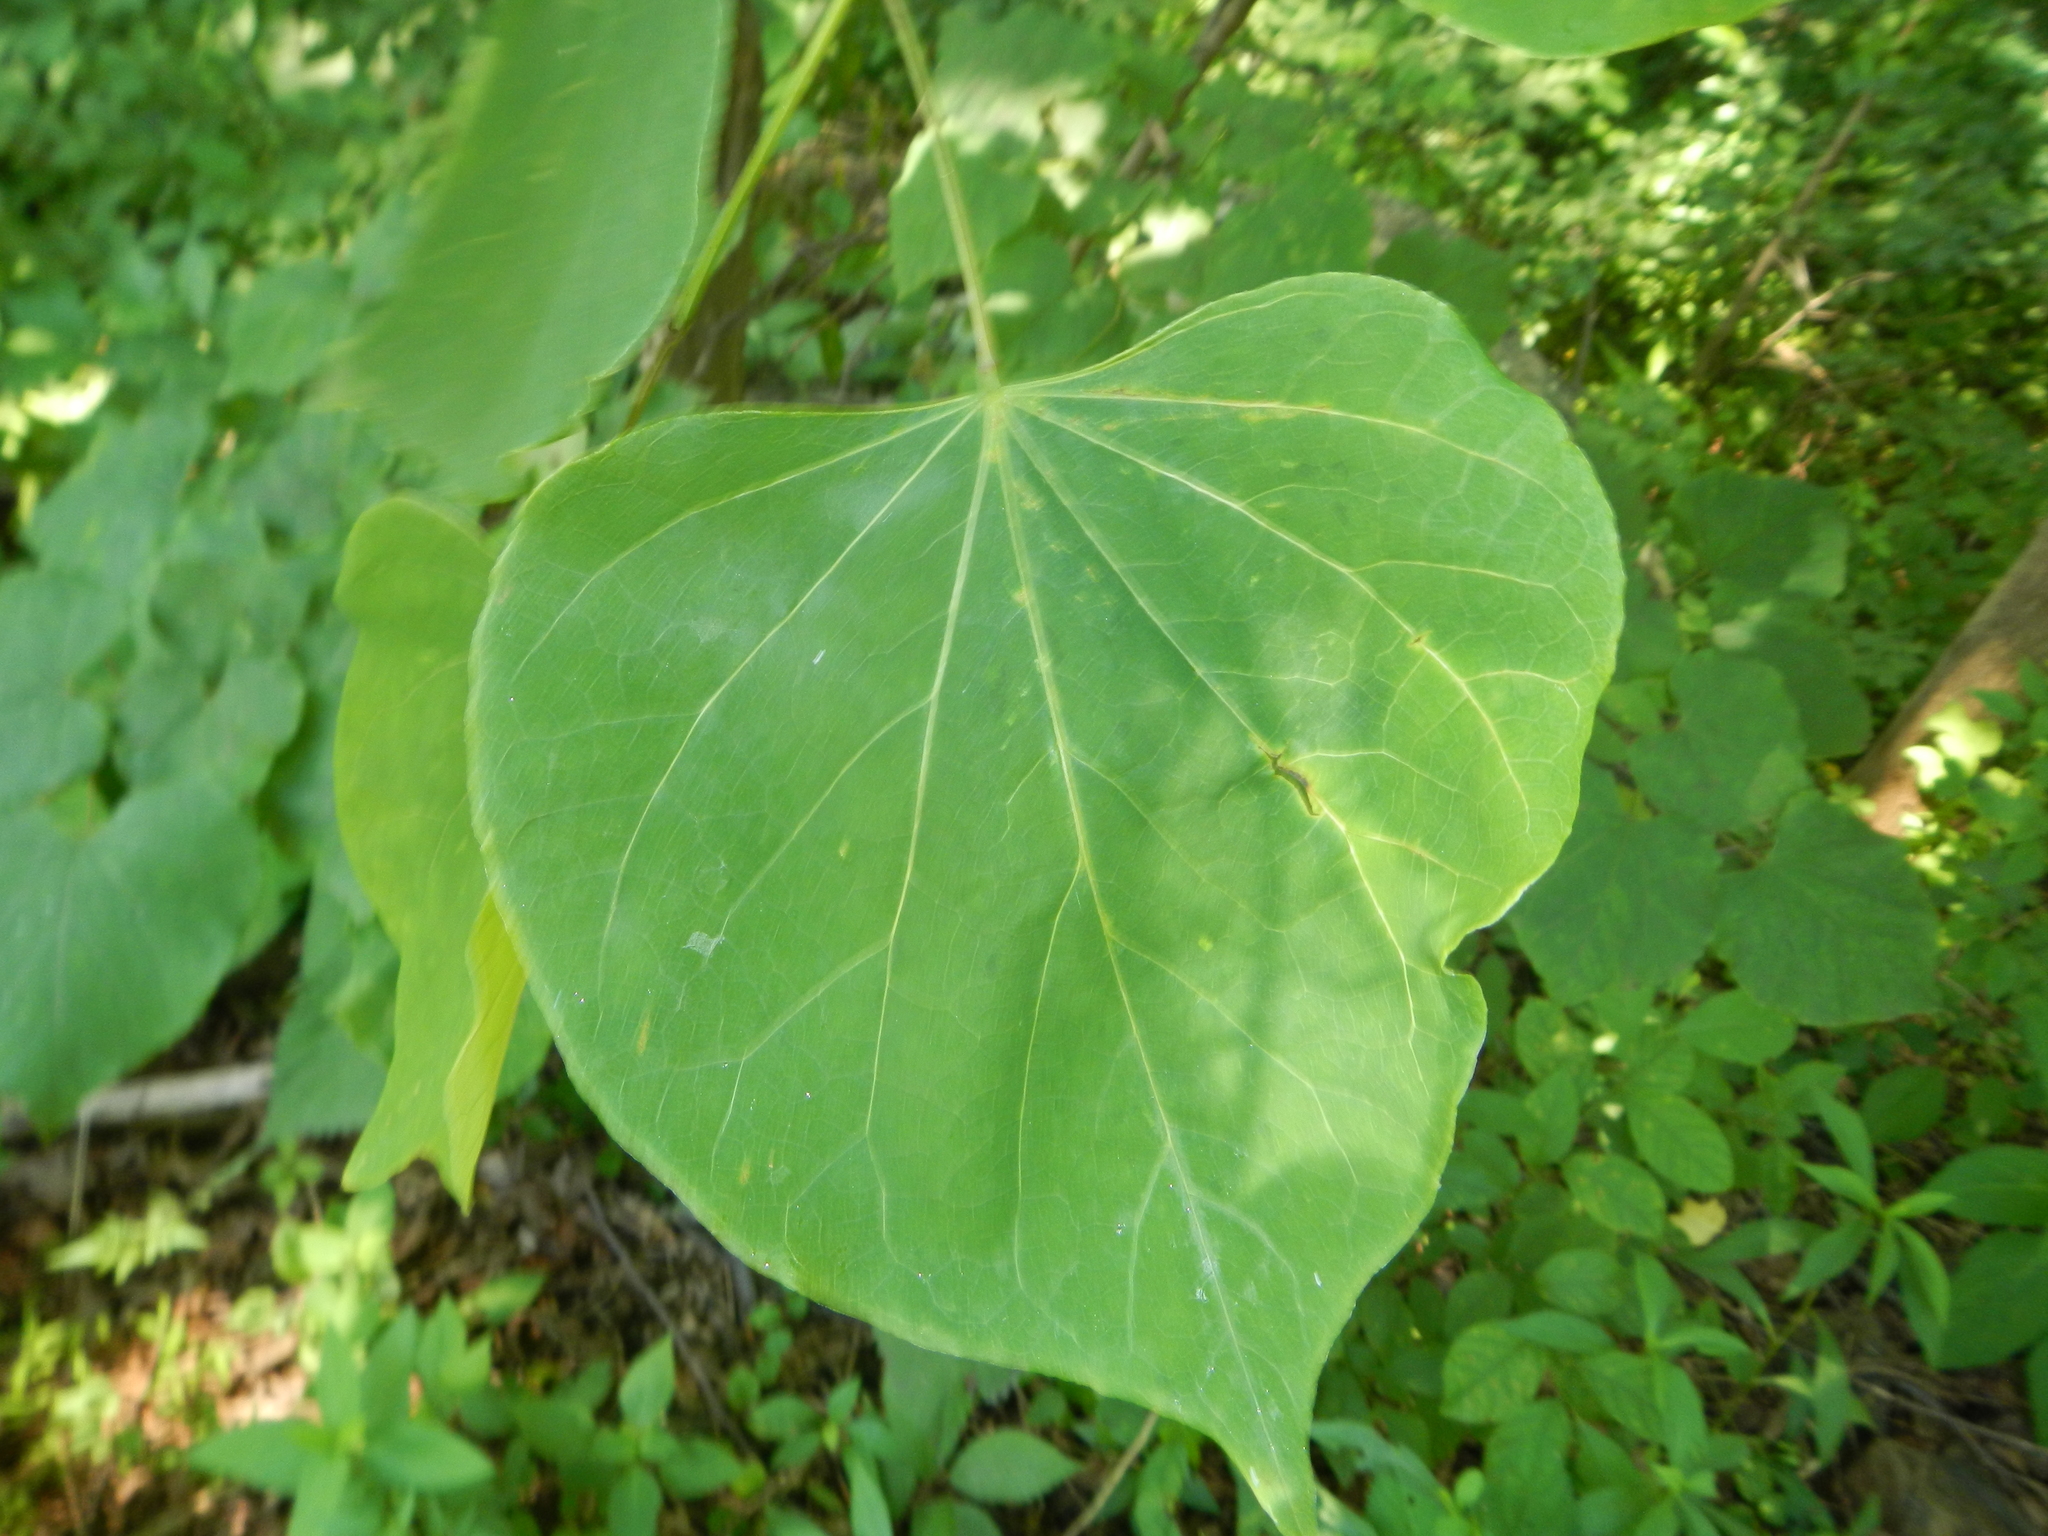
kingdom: Plantae
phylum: Tracheophyta
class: Magnoliopsida
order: Fabales
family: Fabaceae
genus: Cercis
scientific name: Cercis canadensis
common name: Eastern redbud
